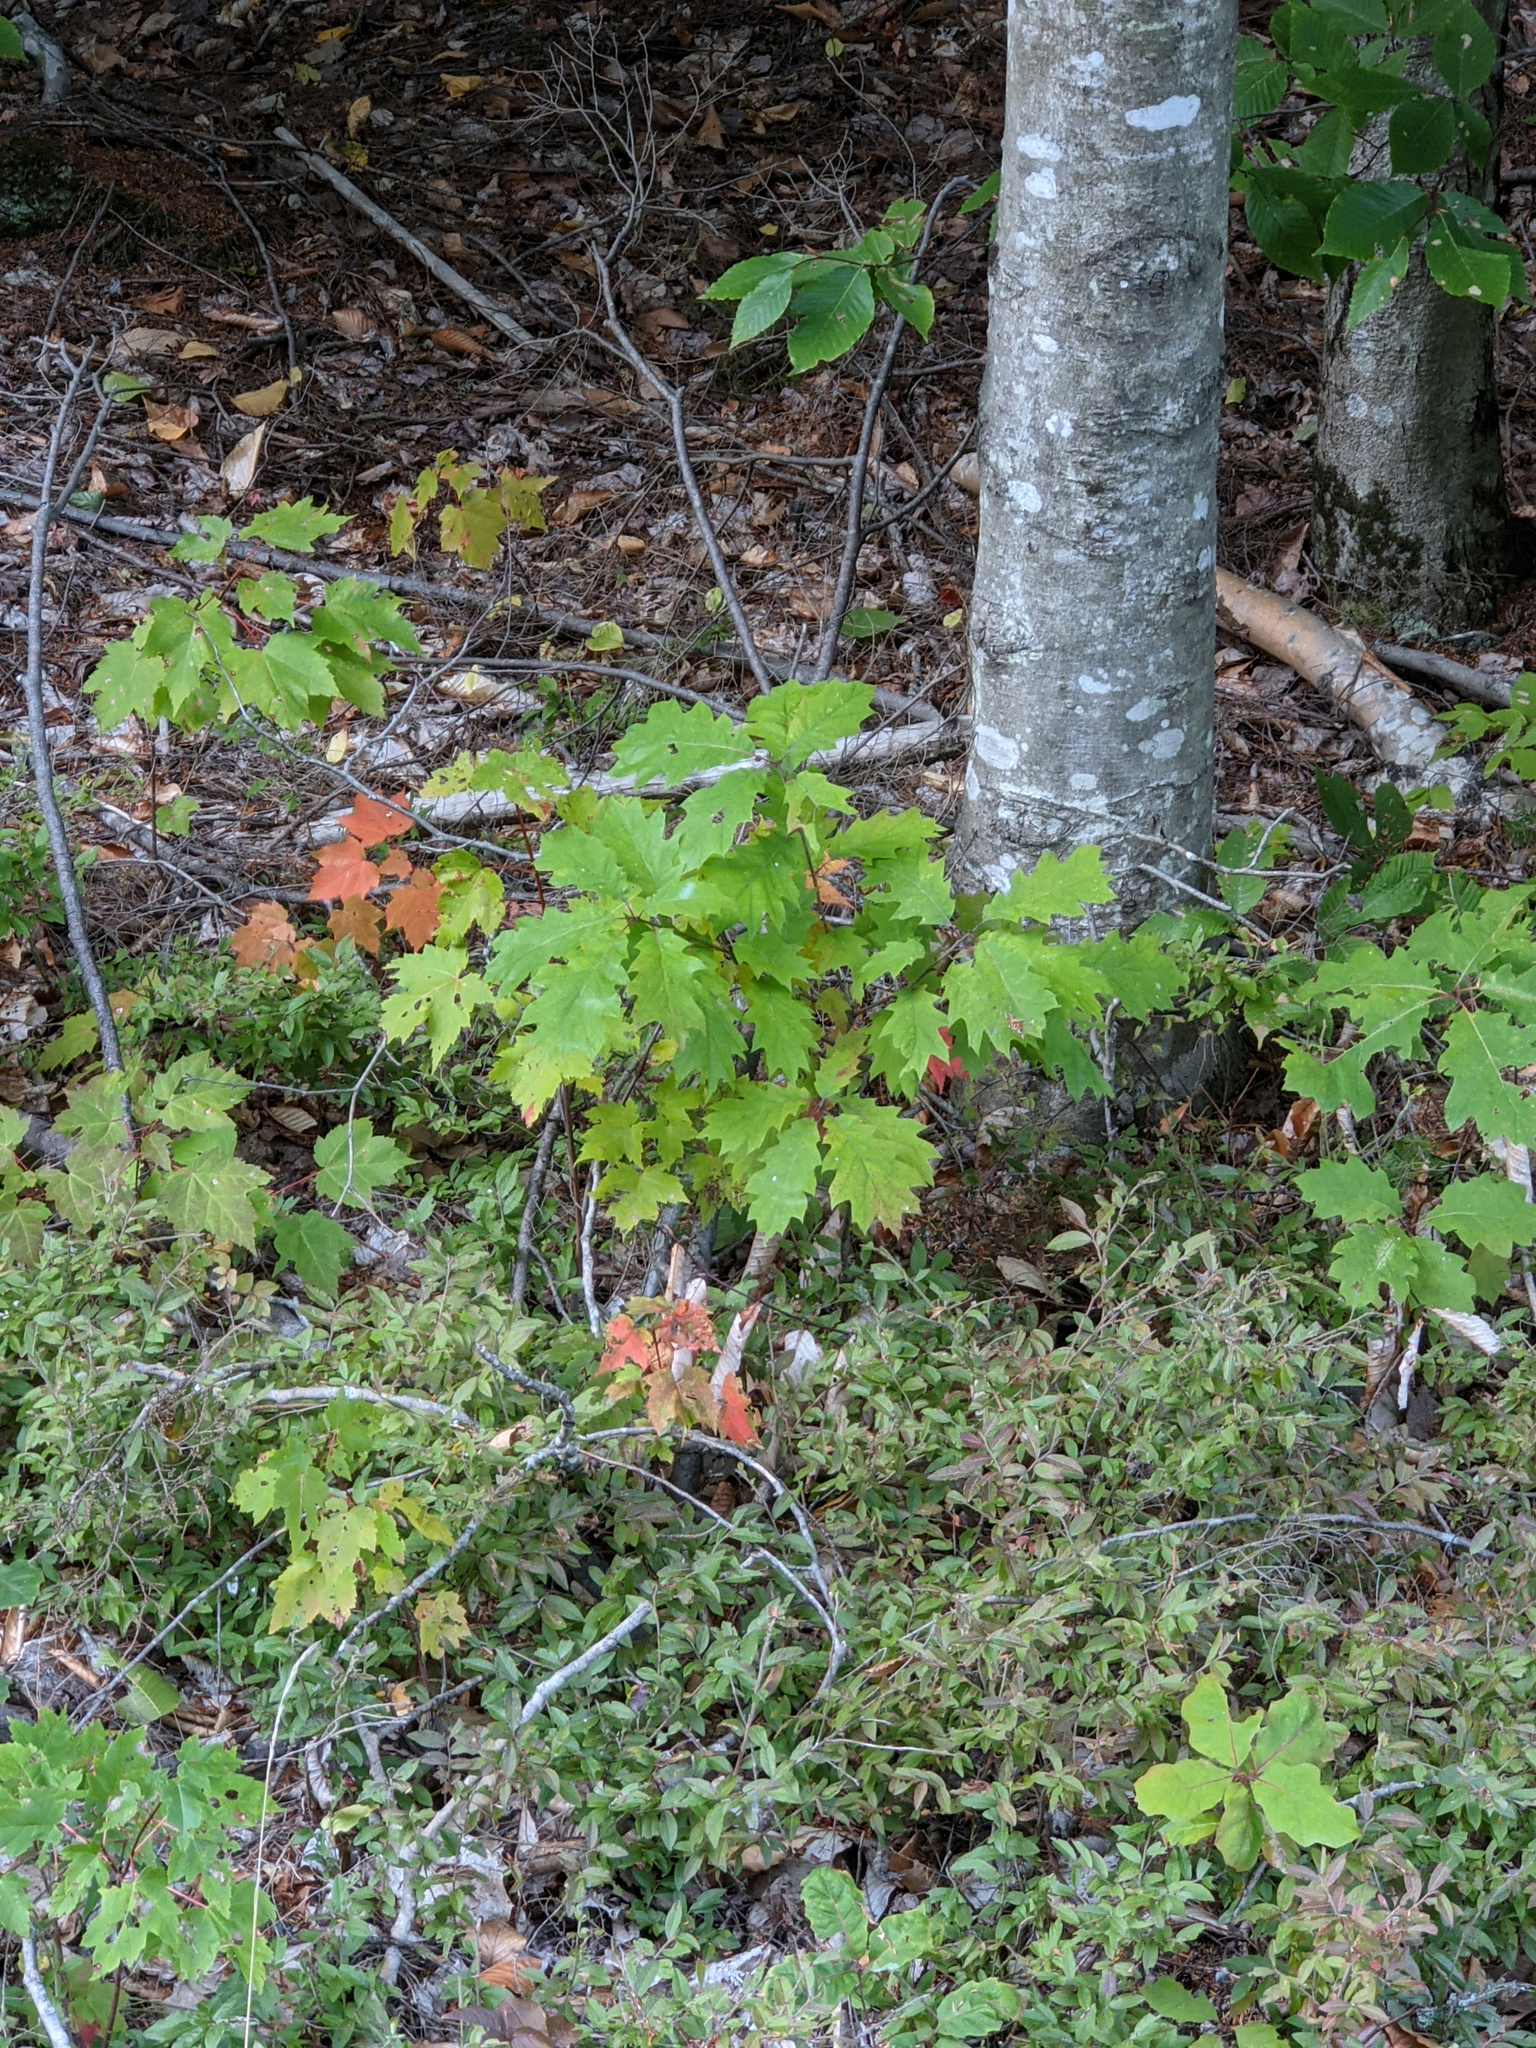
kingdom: Plantae
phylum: Tracheophyta
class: Magnoliopsida
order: Fagales
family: Fagaceae
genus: Quercus
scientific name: Quercus rubra
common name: Red oak
